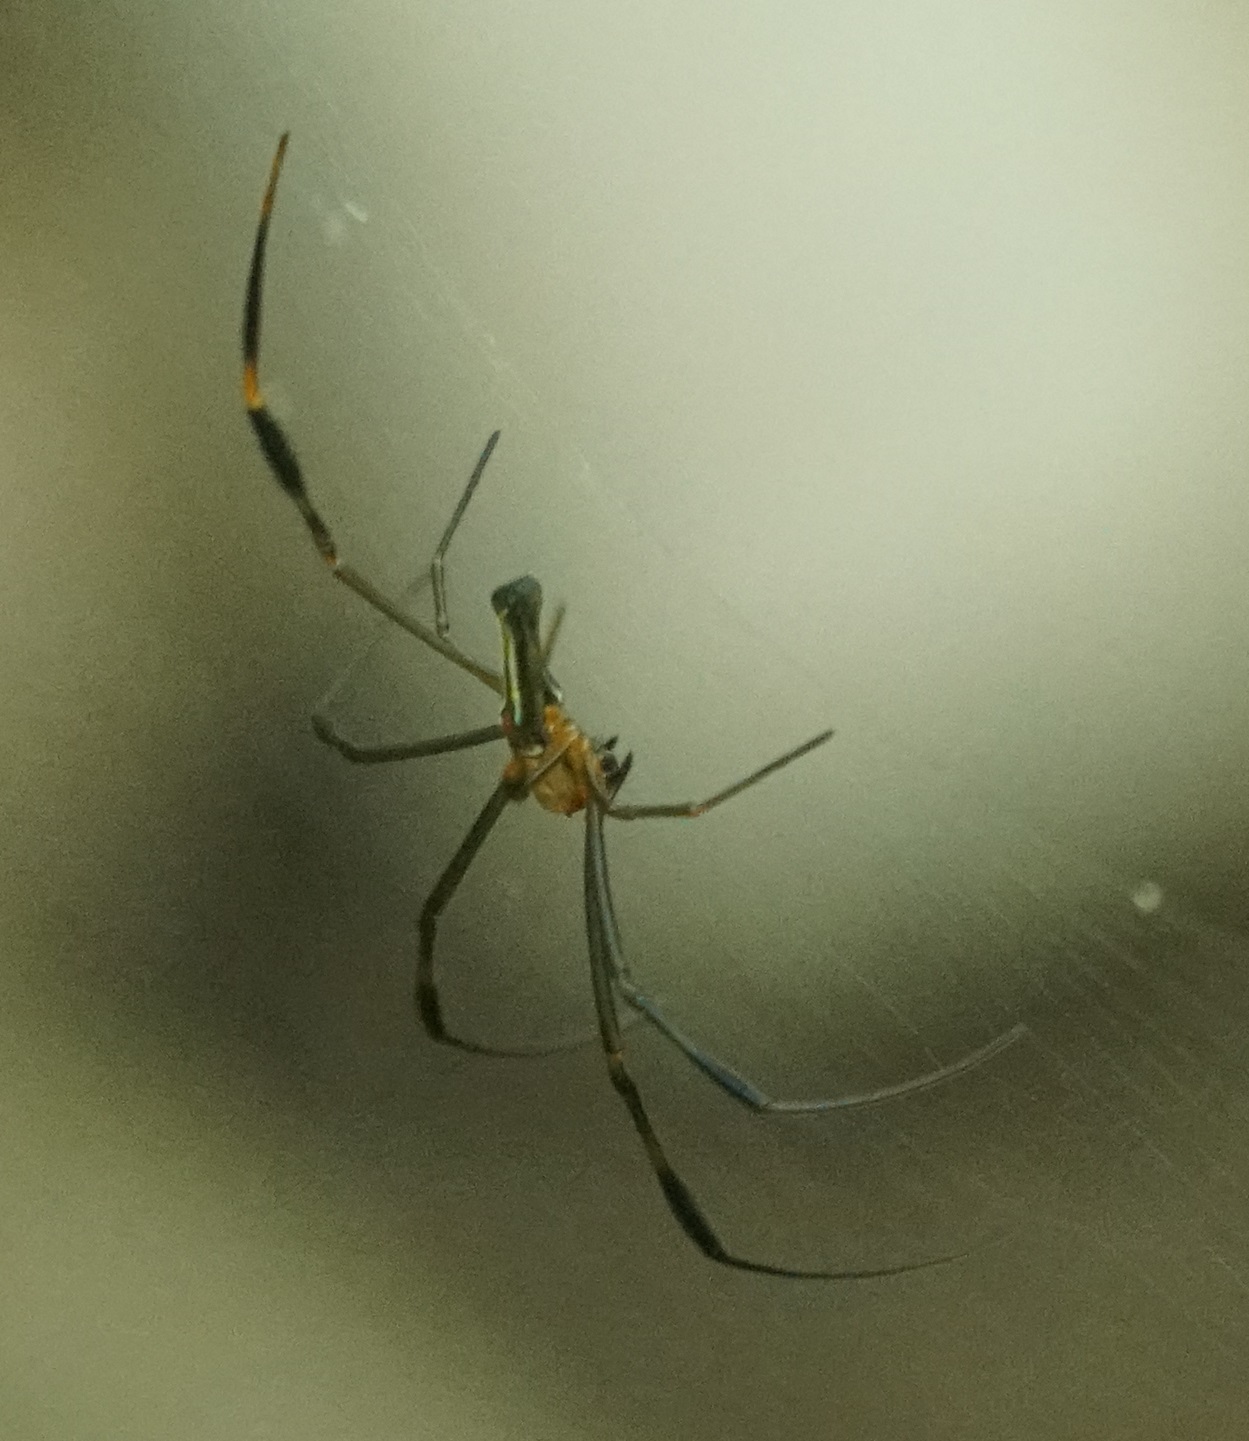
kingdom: Animalia
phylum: Arthropoda
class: Arachnida
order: Araneae
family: Araneidae
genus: Nephila
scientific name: Nephila pilipes
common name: Giant golden orb weaver
